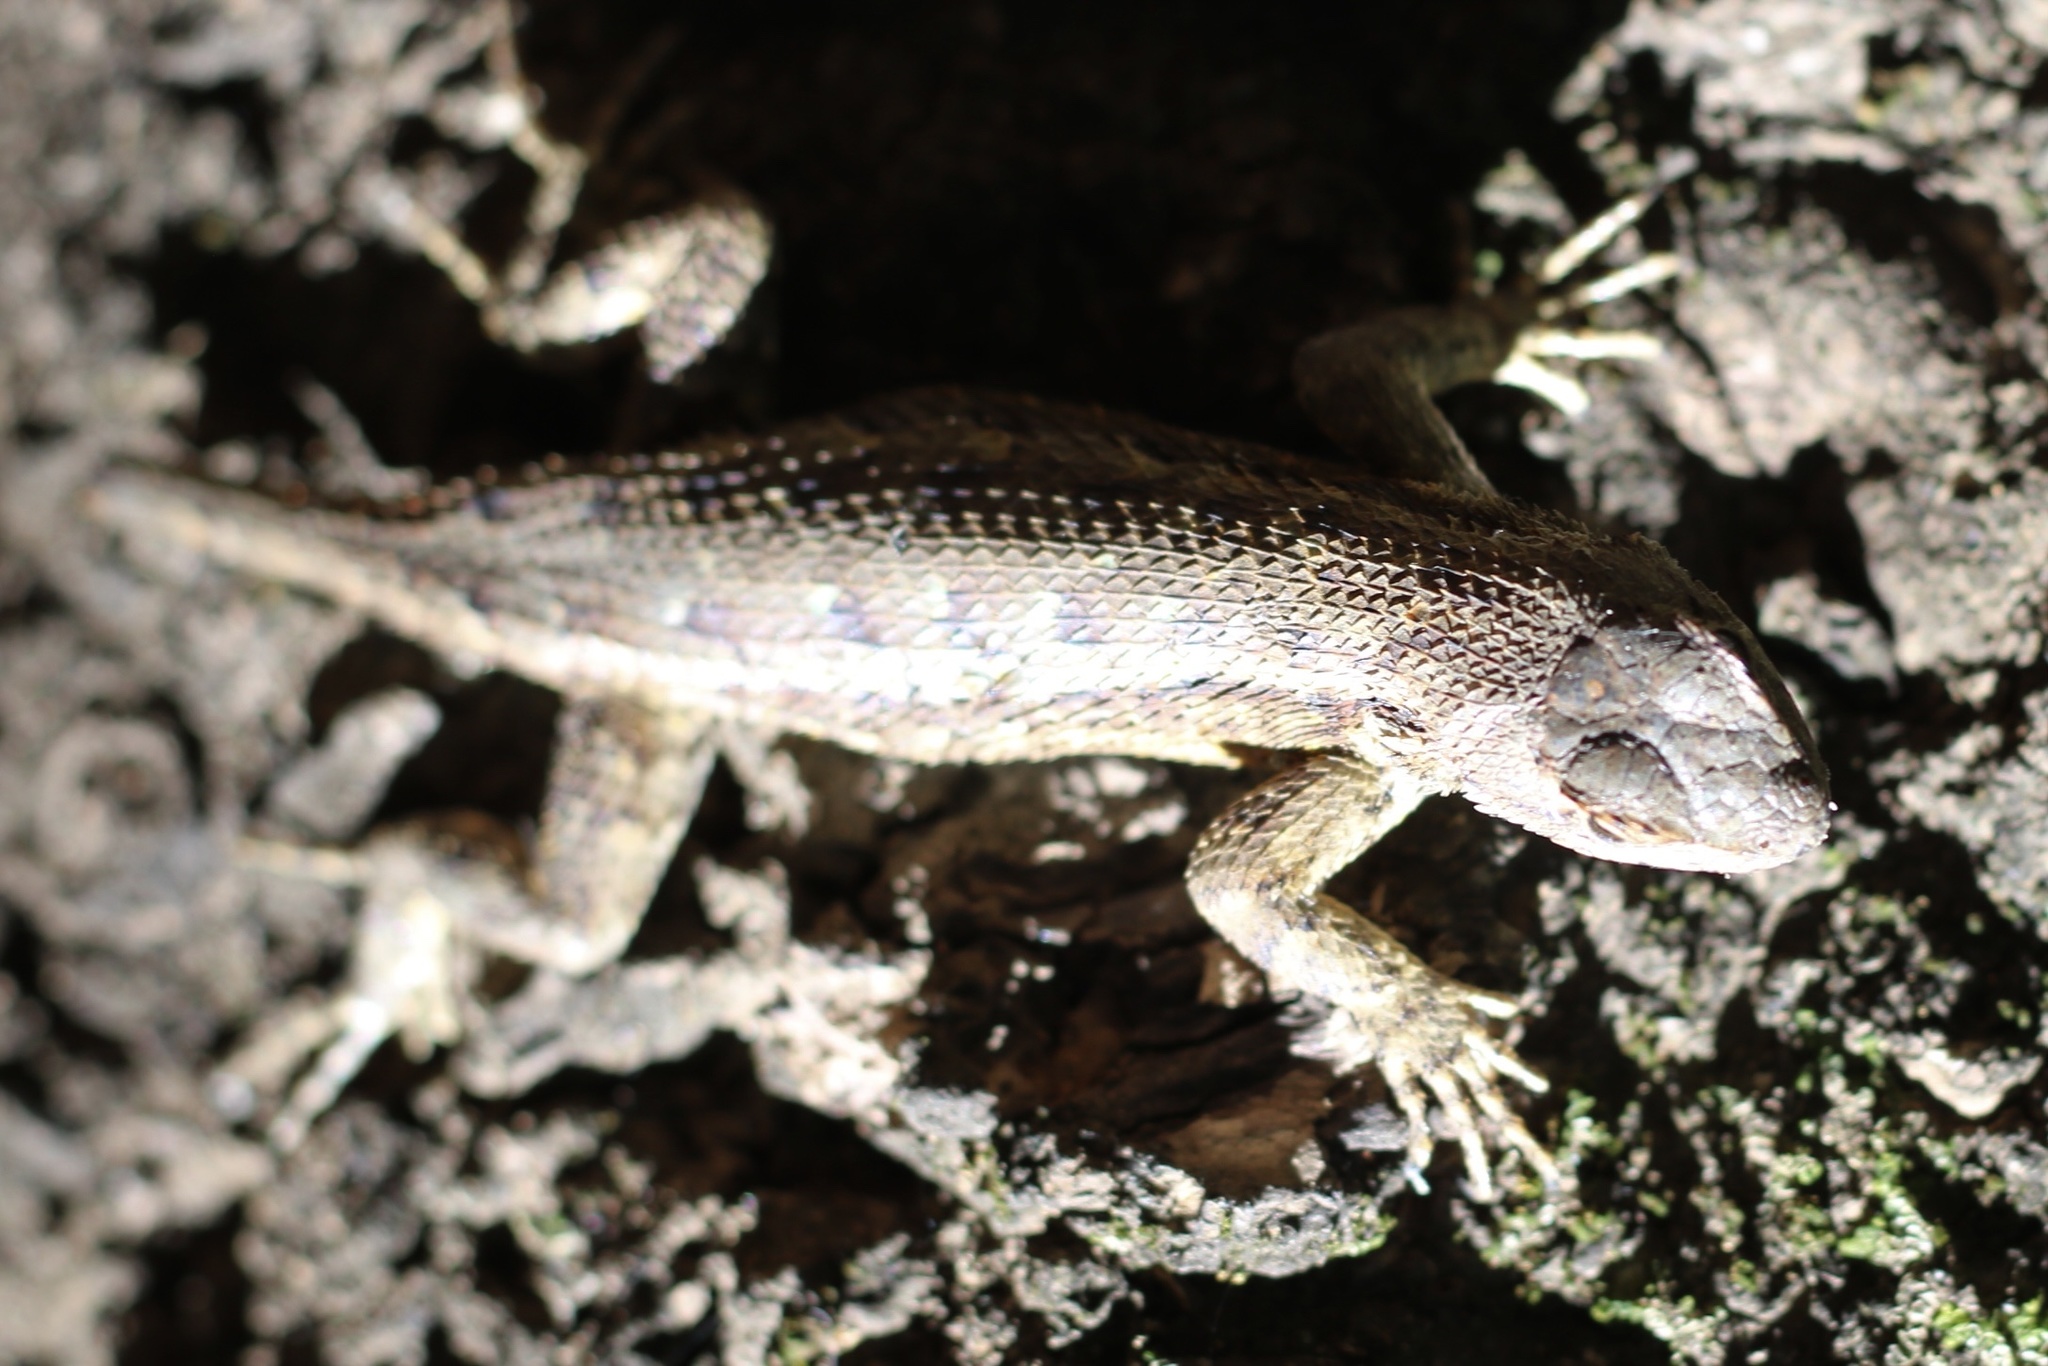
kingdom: Animalia
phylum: Chordata
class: Squamata
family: Phrynosomatidae
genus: Sceloporus
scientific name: Sceloporus occidentalis
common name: Western fence lizard
